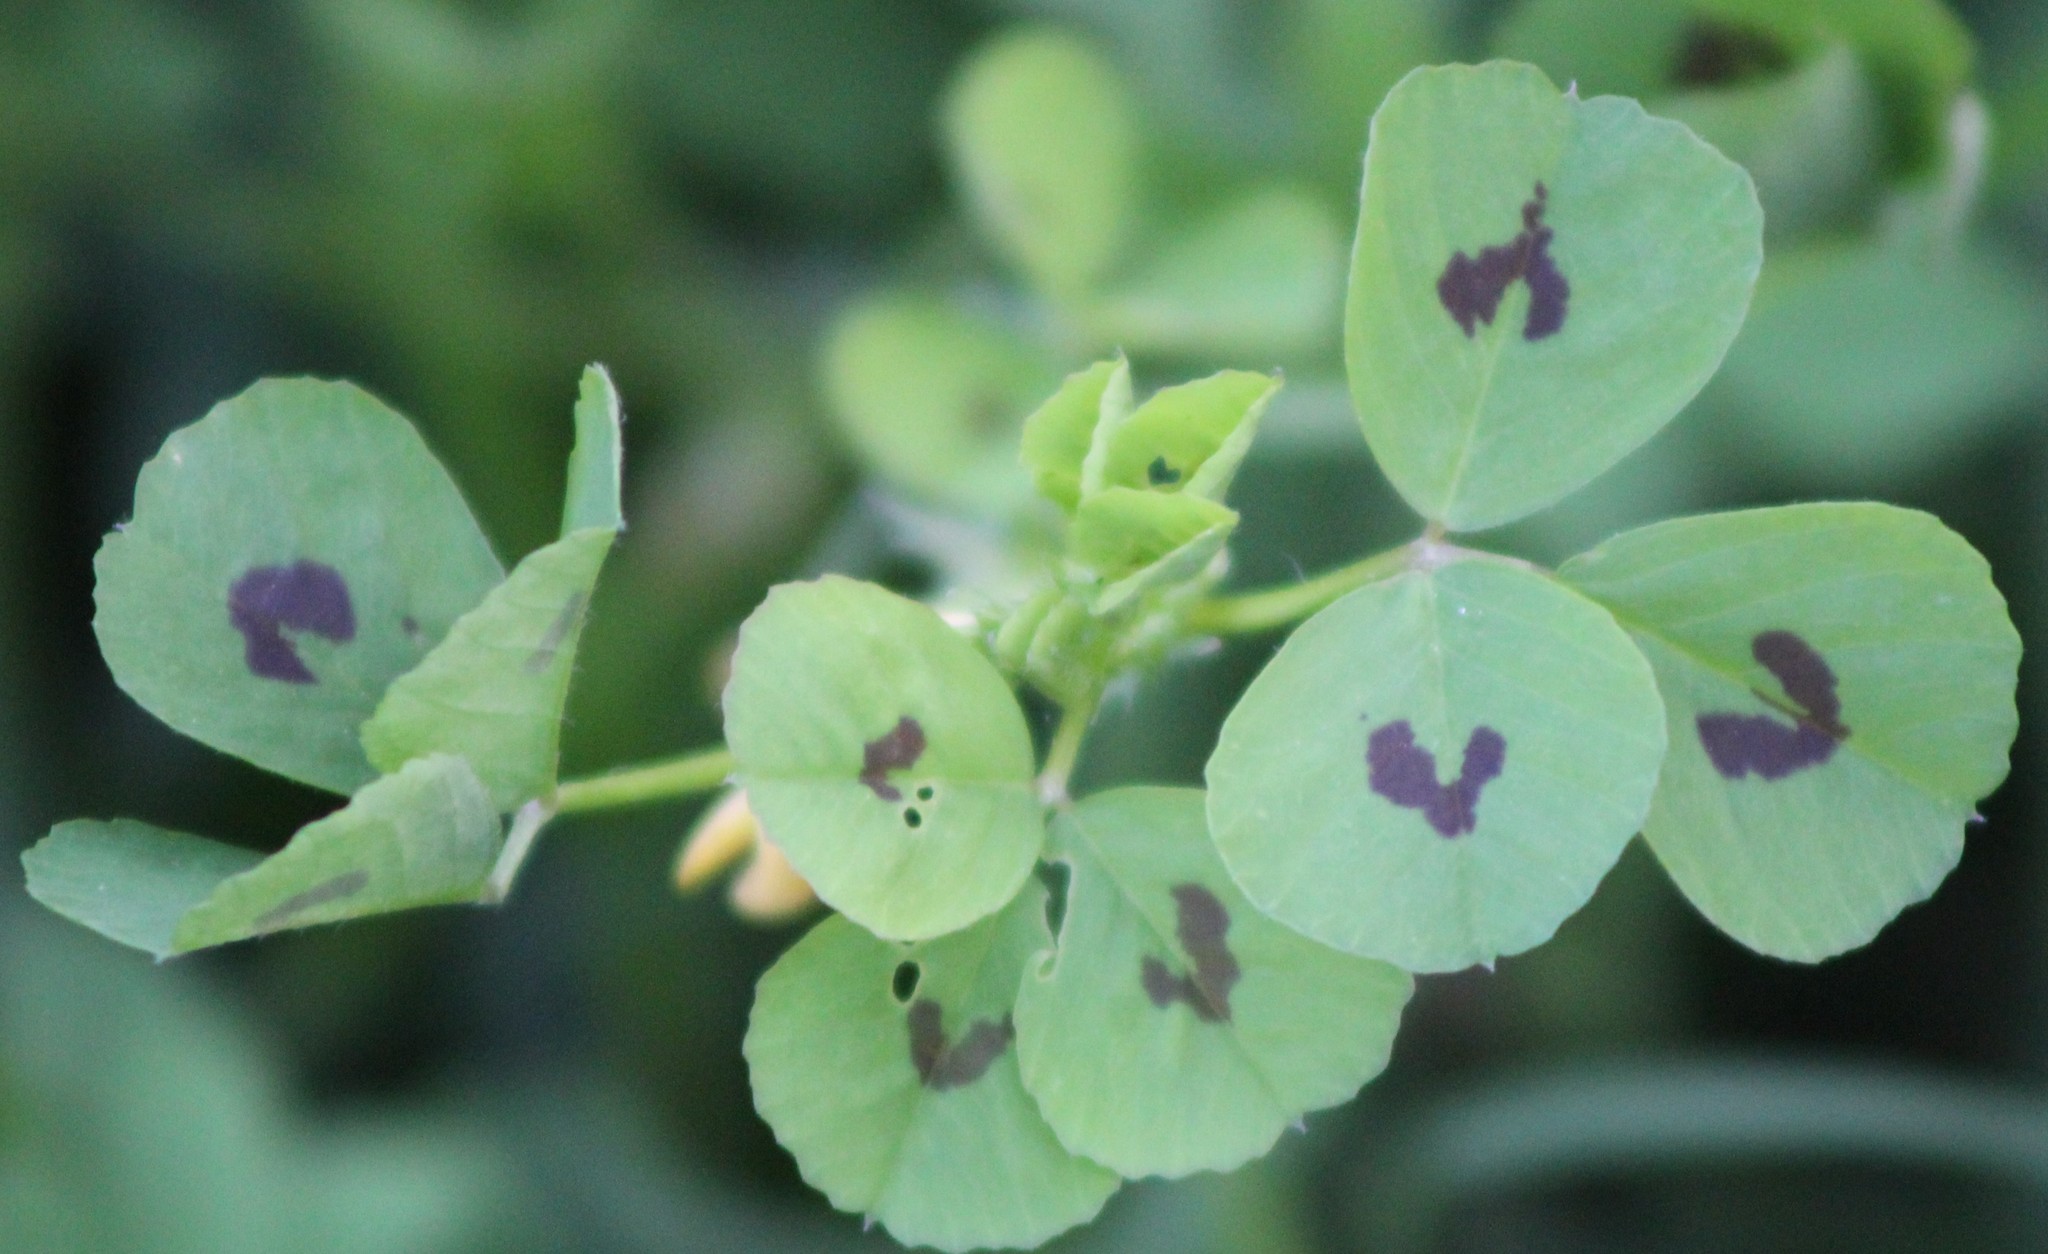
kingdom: Plantae
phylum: Tracheophyta
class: Magnoliopsida
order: Fabales
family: Fabaceae
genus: Medicago
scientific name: Medicago arabica
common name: Spotted medick
